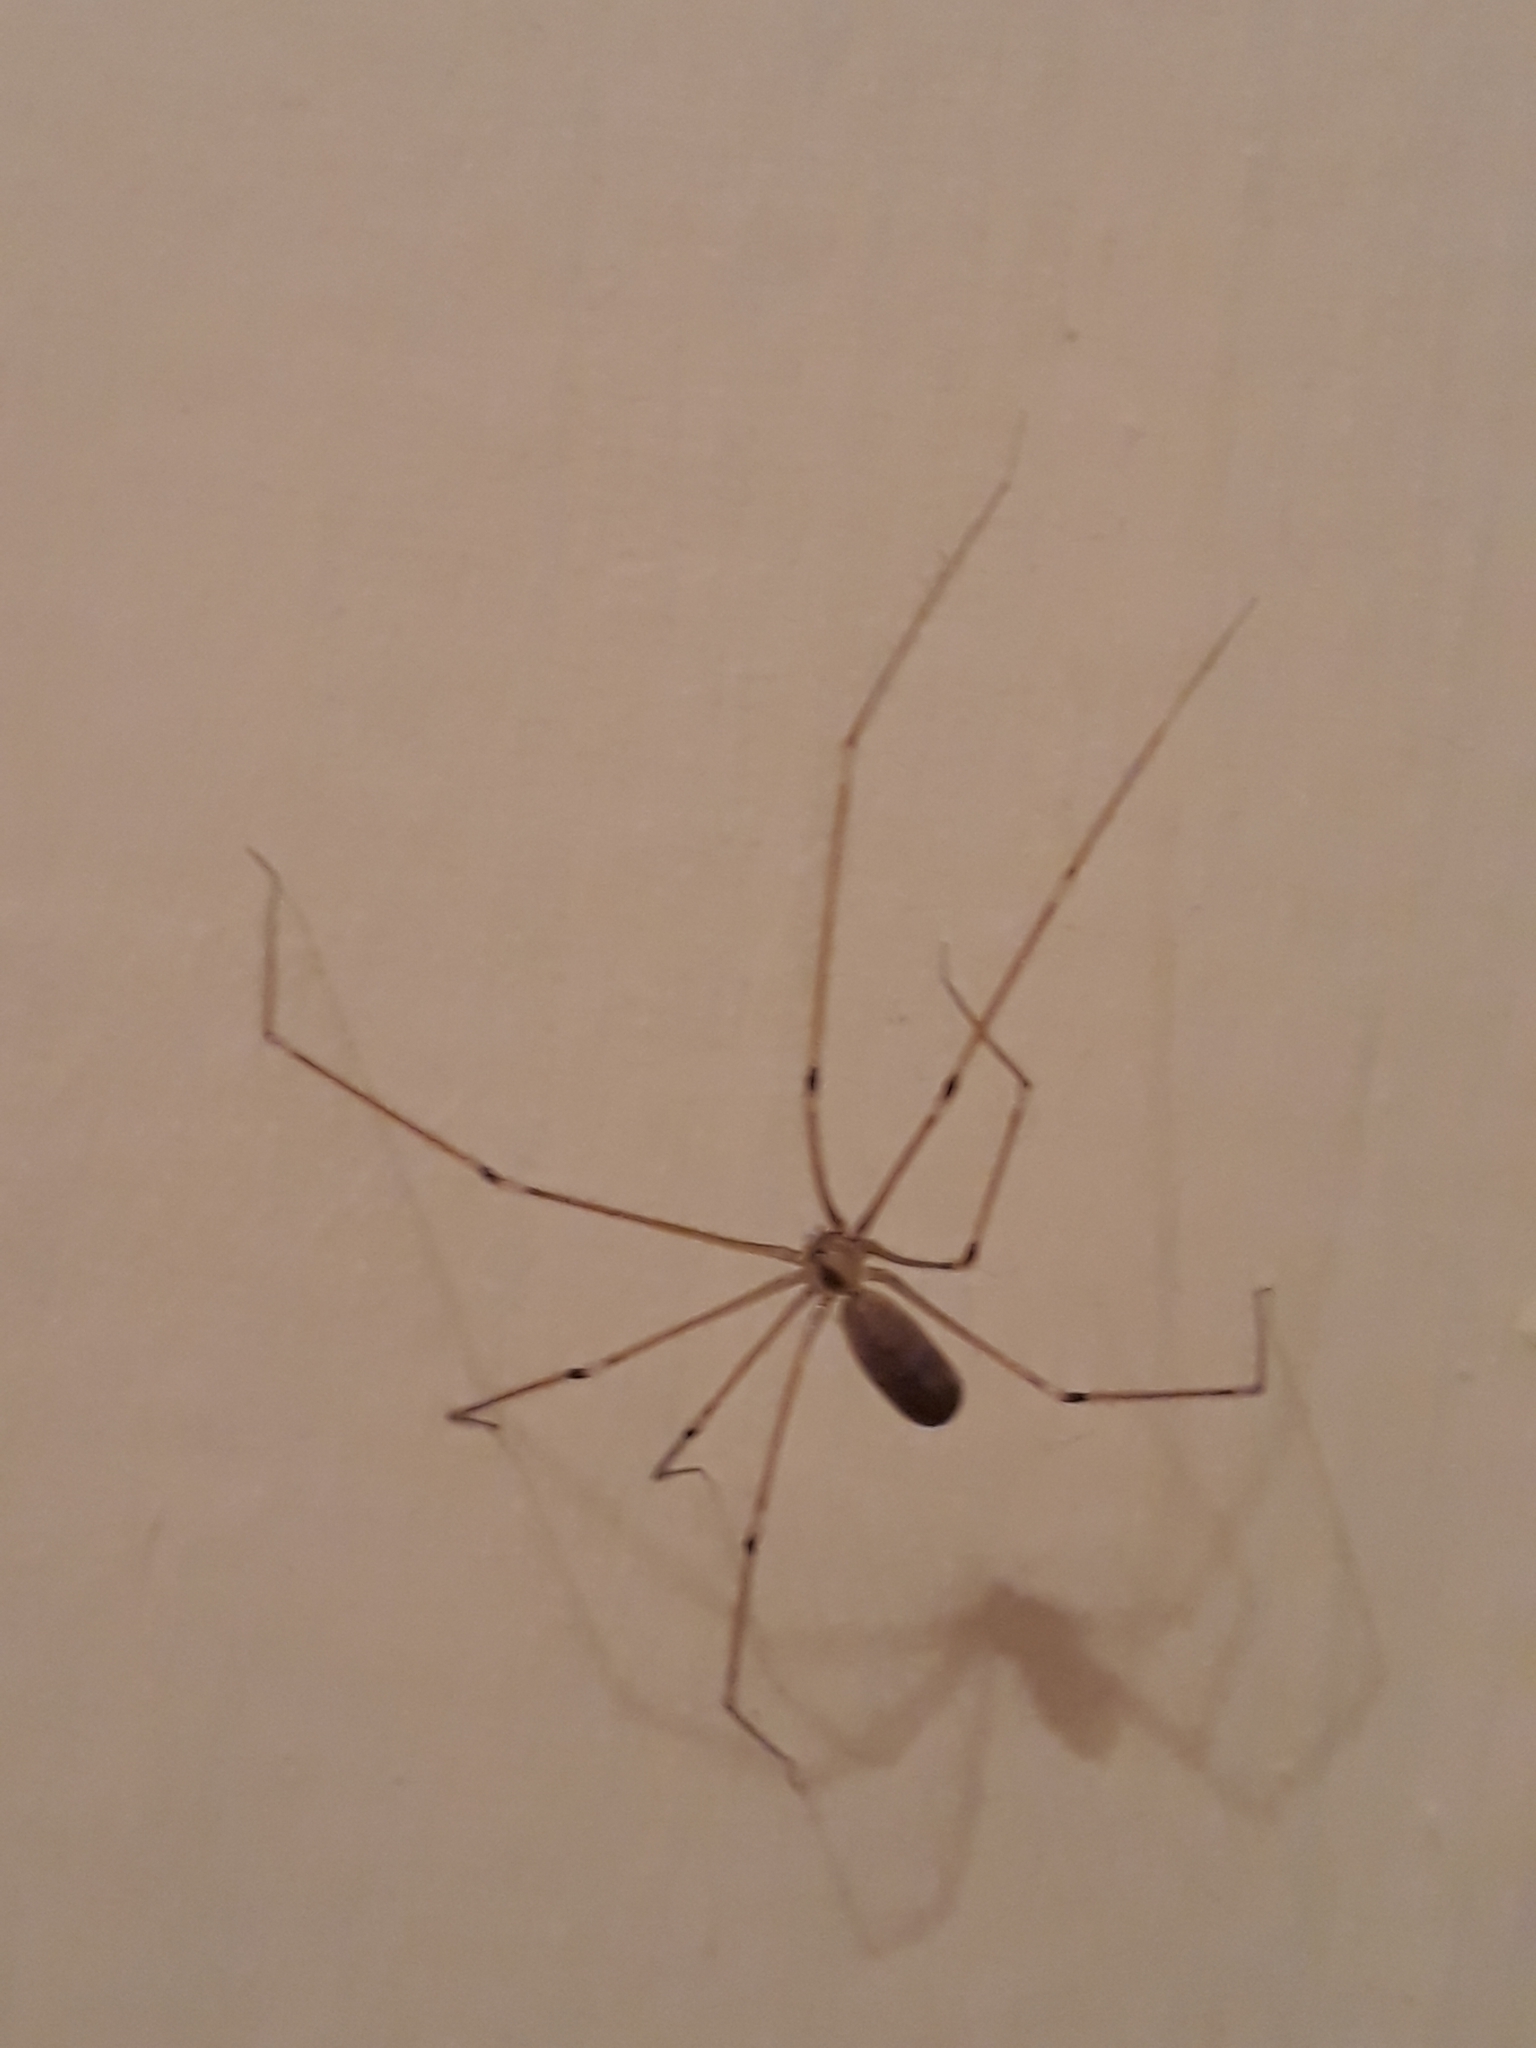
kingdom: Animalia
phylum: Arthropoda
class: Arachnida
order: Araneae
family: Pholcidae
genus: Pholcus
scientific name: Pholcus phalangioides
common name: Longbodied cellar spider
